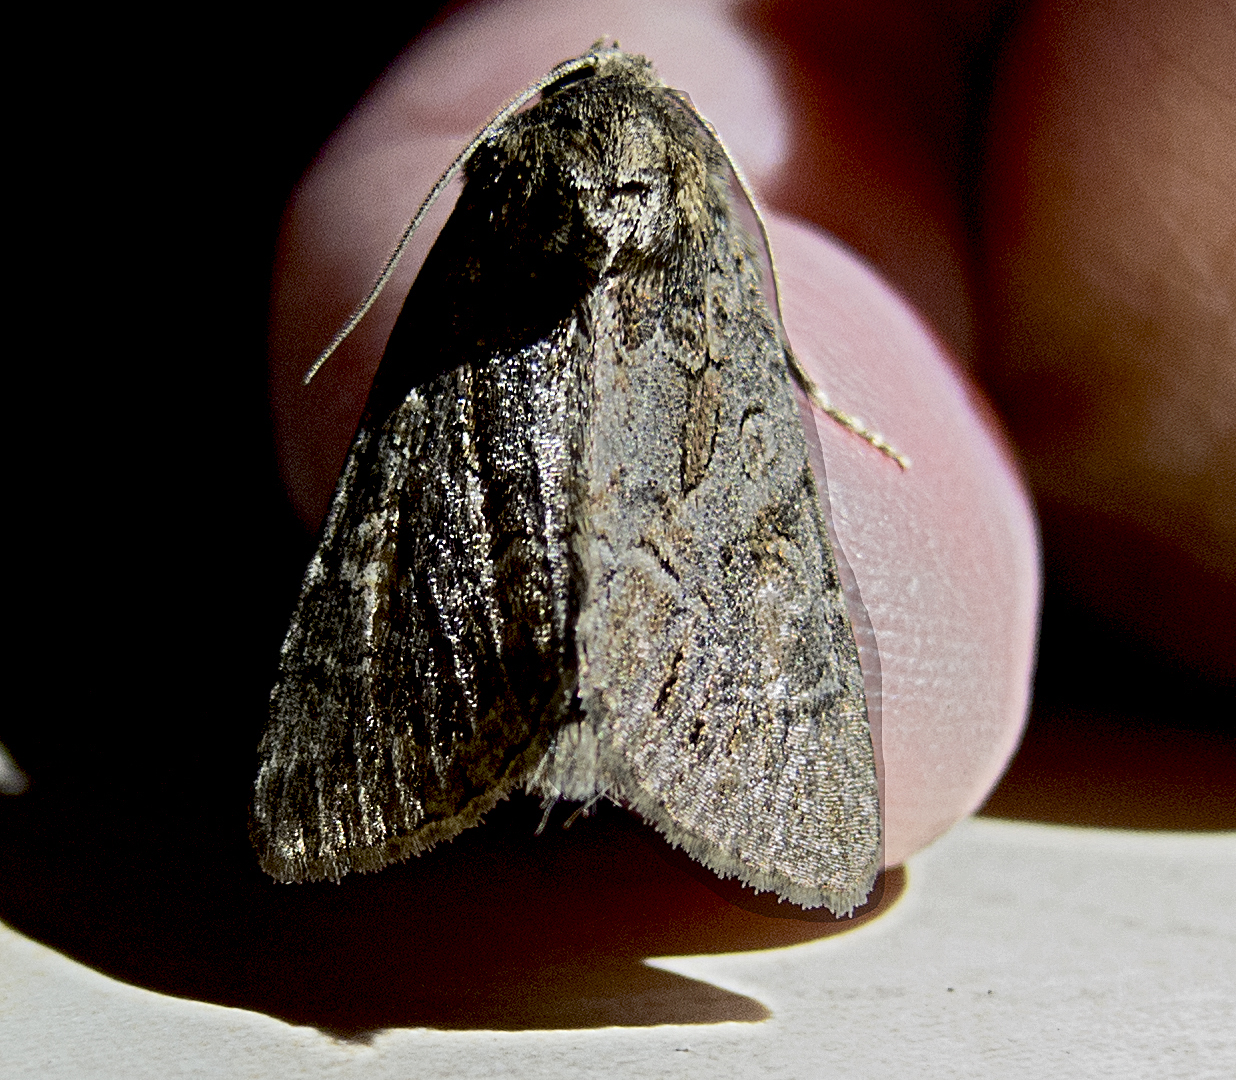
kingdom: Animalia
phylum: Arthropoda
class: Insecta
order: Lepidoptera
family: Noctuidae
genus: Thalpophila
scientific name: Thalpophila matura
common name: Straw underwing
